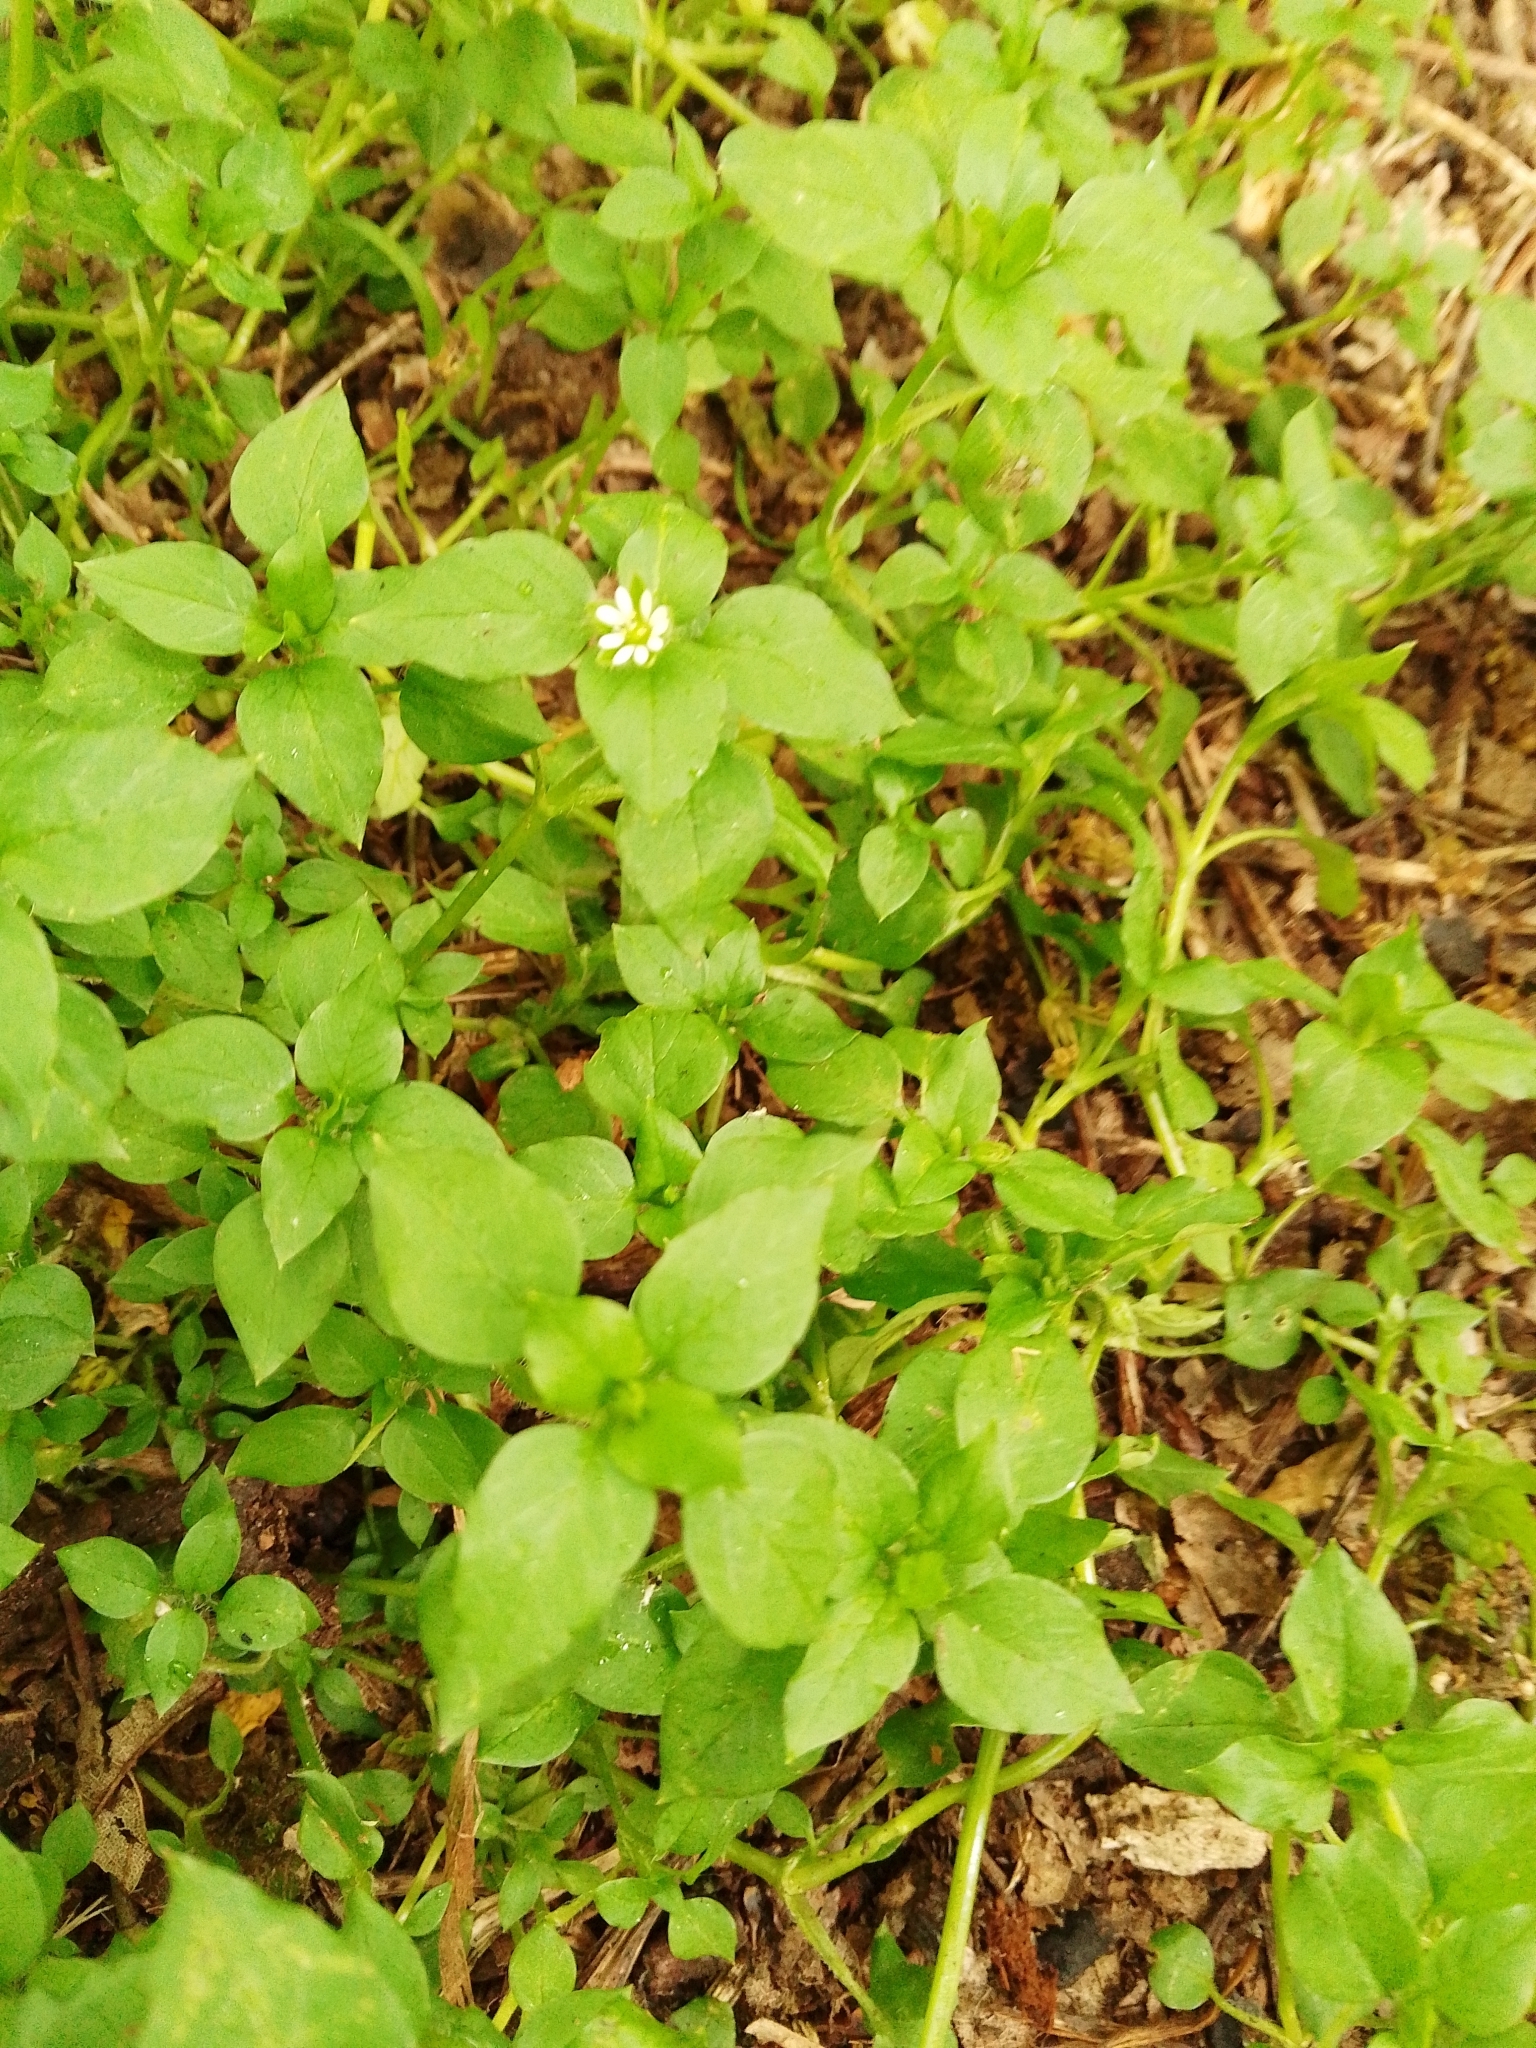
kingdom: Plantae
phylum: Tracheophyta
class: Magnoliopsida
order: Caryophyllales
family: Caryophyllaceae
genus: Stellaria
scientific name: Stellaria media
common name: Common chickweed
